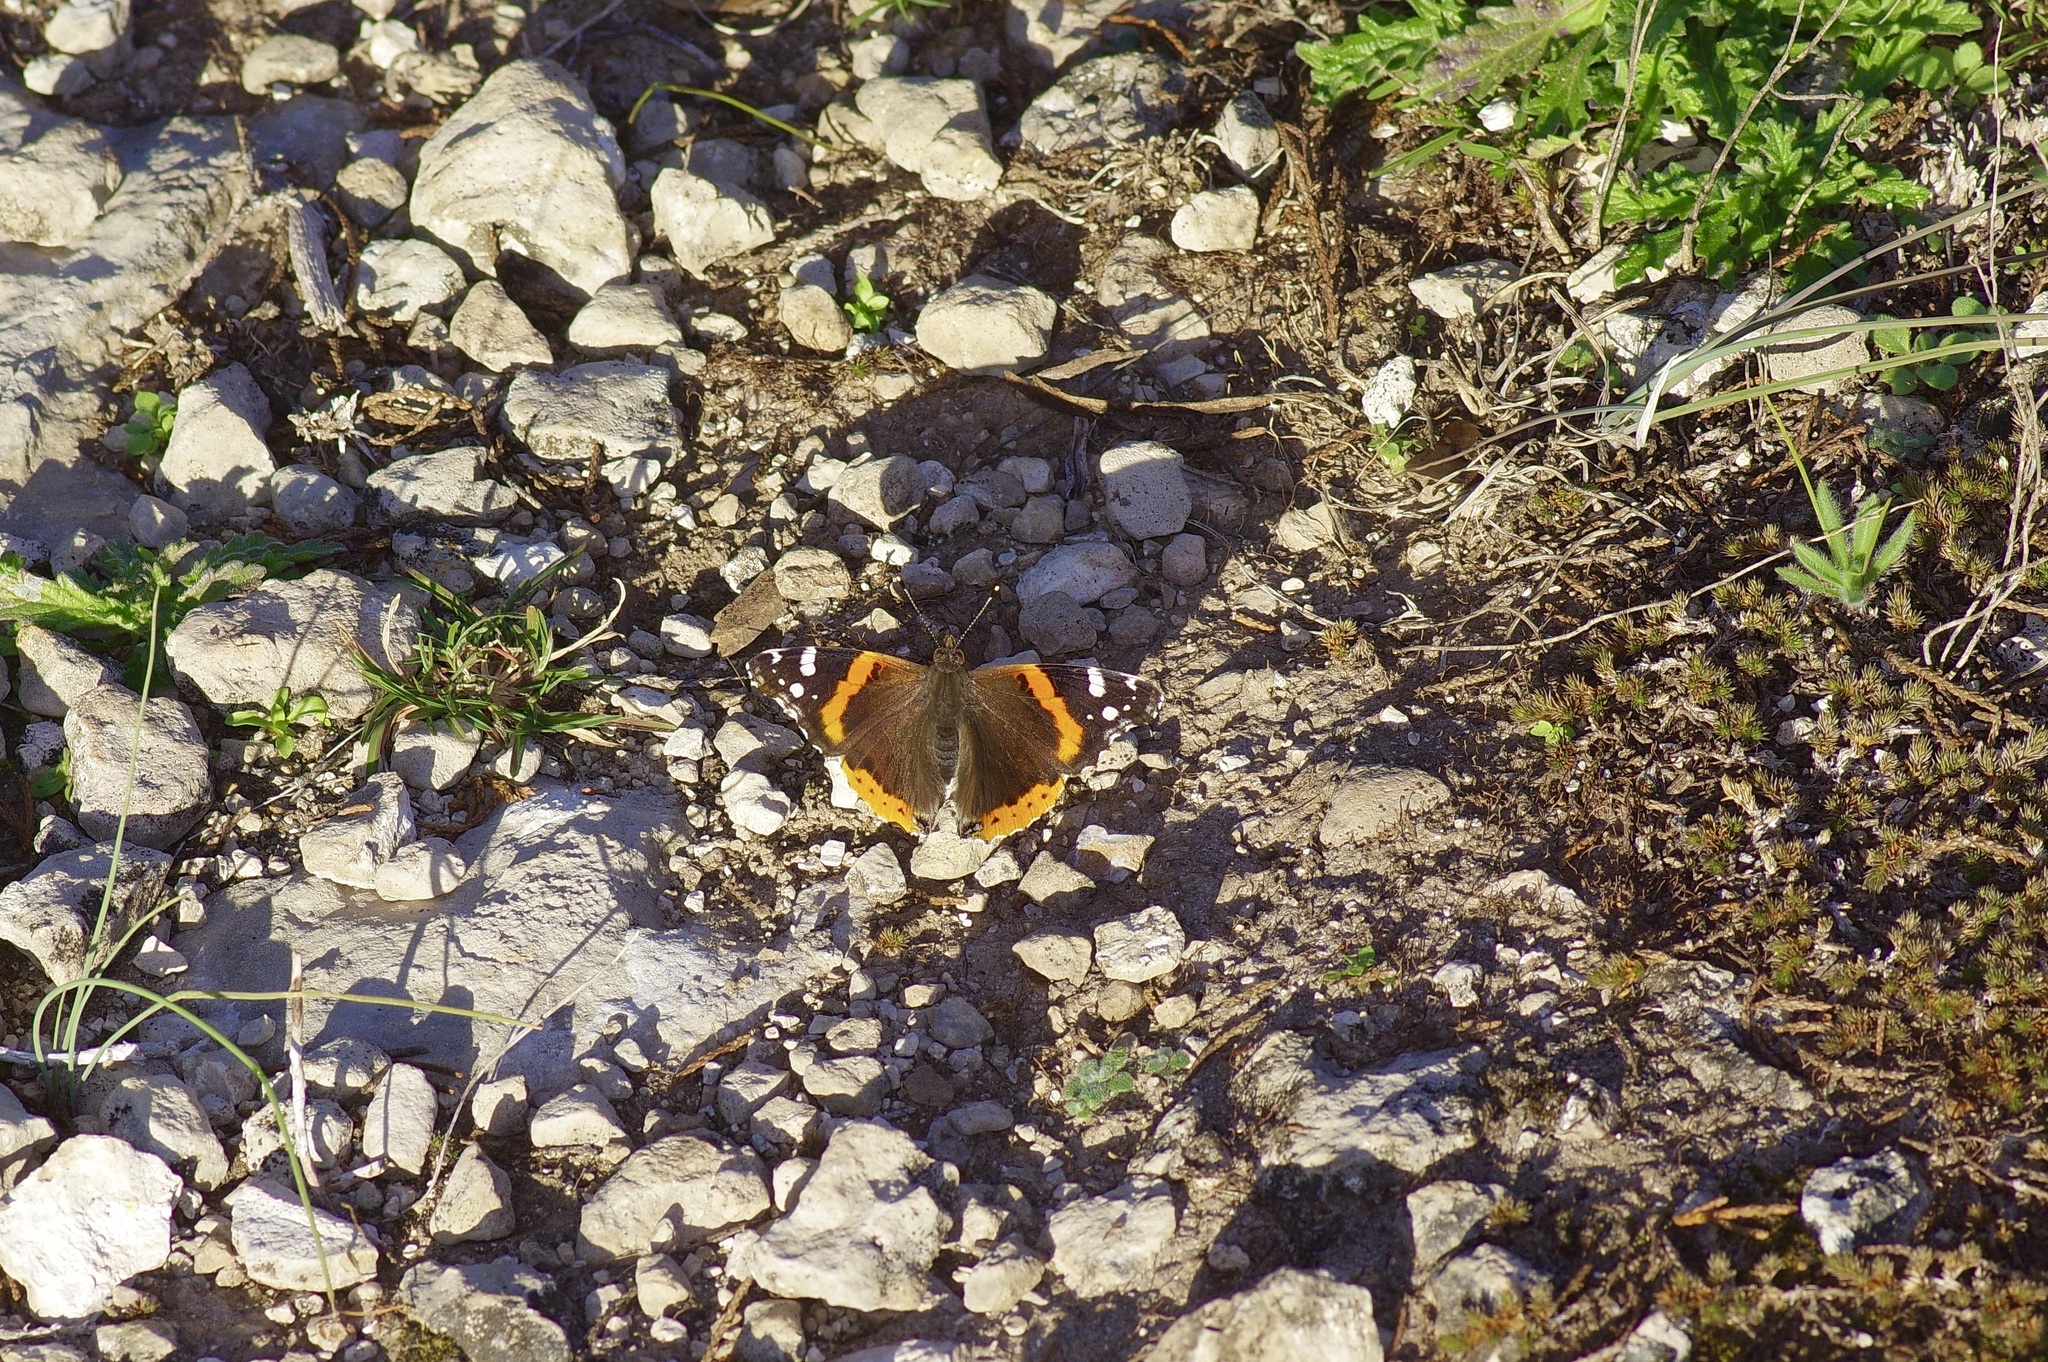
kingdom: Animalia
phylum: Arthropoda
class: Insecta
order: Lepidoptera
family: Nymphalidae
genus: Vanessa
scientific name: Vanessa atalanta
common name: Red admiral
